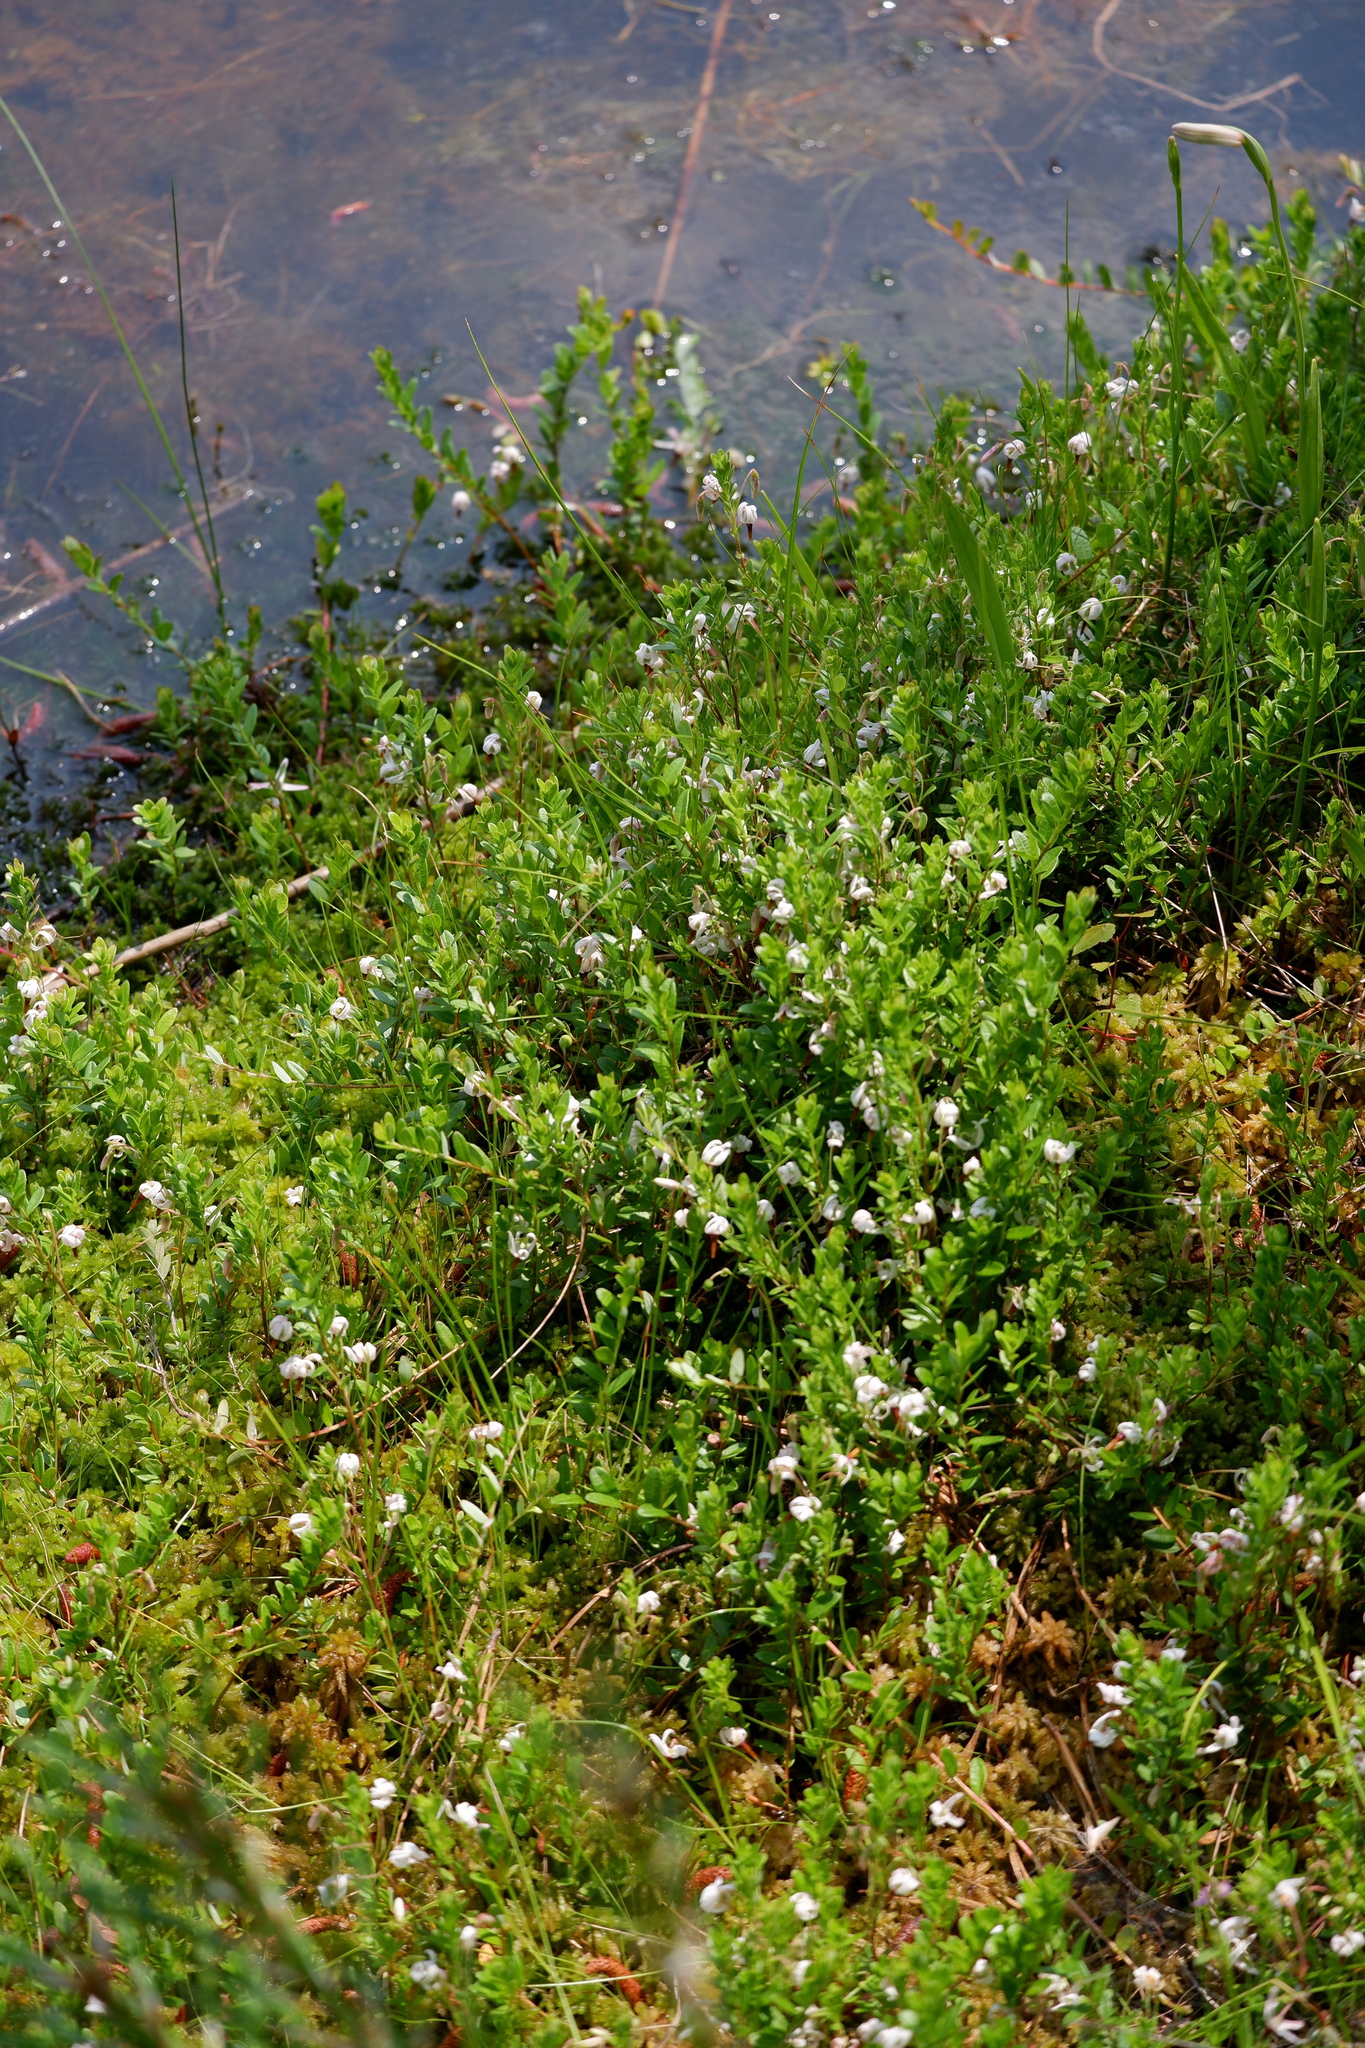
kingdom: Plantae
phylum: Tracheophyta
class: Magnoliopsida
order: Ericales
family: Ericaceae
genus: Vaccinium
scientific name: Vaccinium macrocarpon
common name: American cranberry
